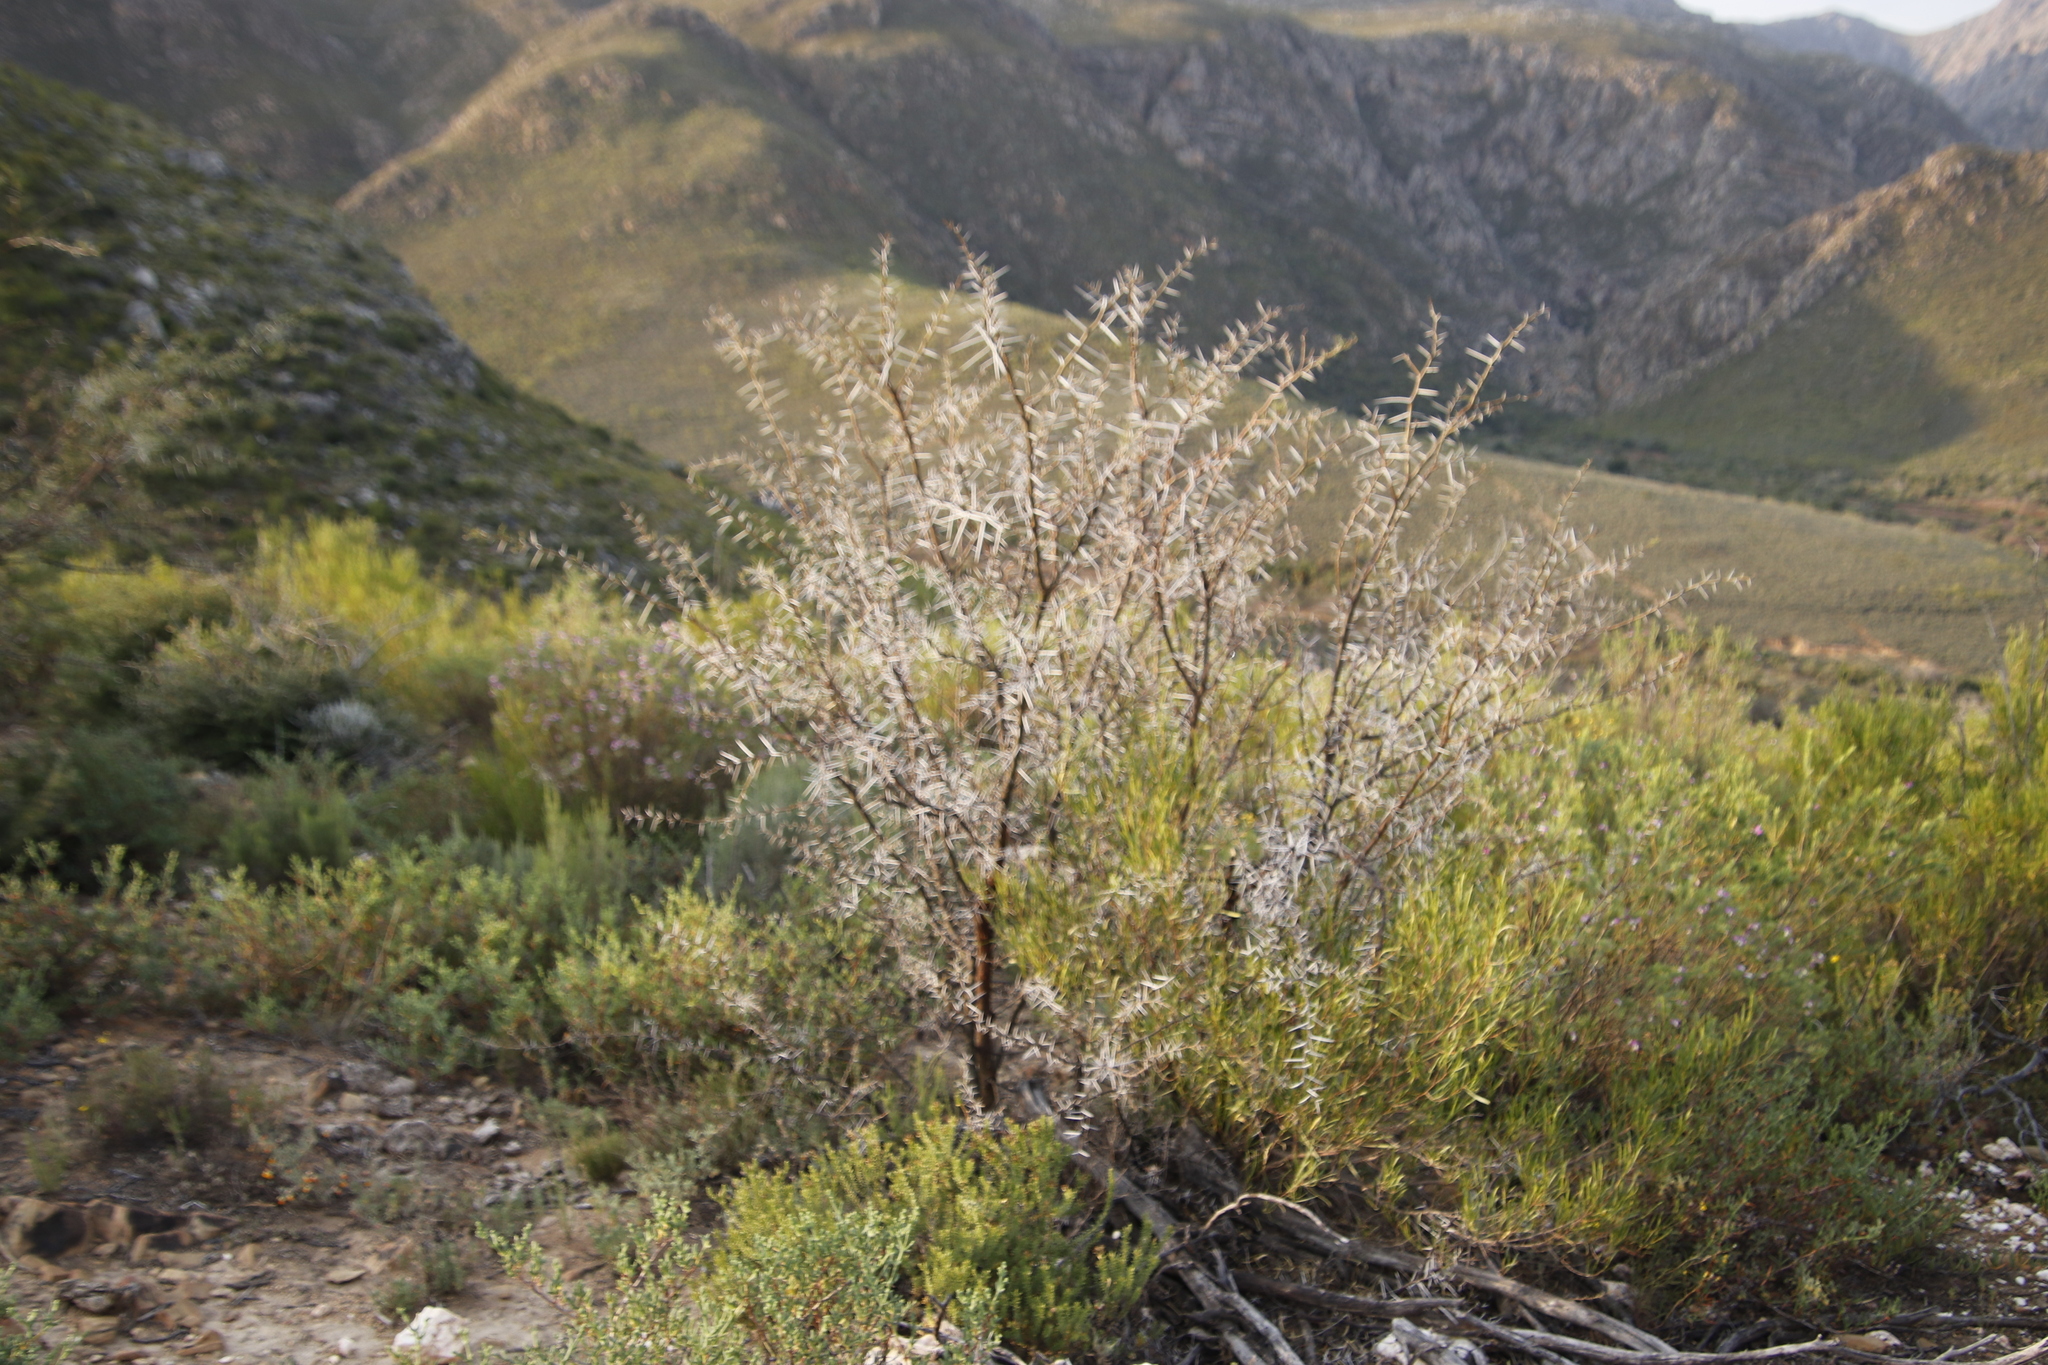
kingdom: Plantae
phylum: Tracheophyta
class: Magnoliopsida
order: Fabales
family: Fabaceae
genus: Vachellia
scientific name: Vachellia karroo
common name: Sweet thorn
